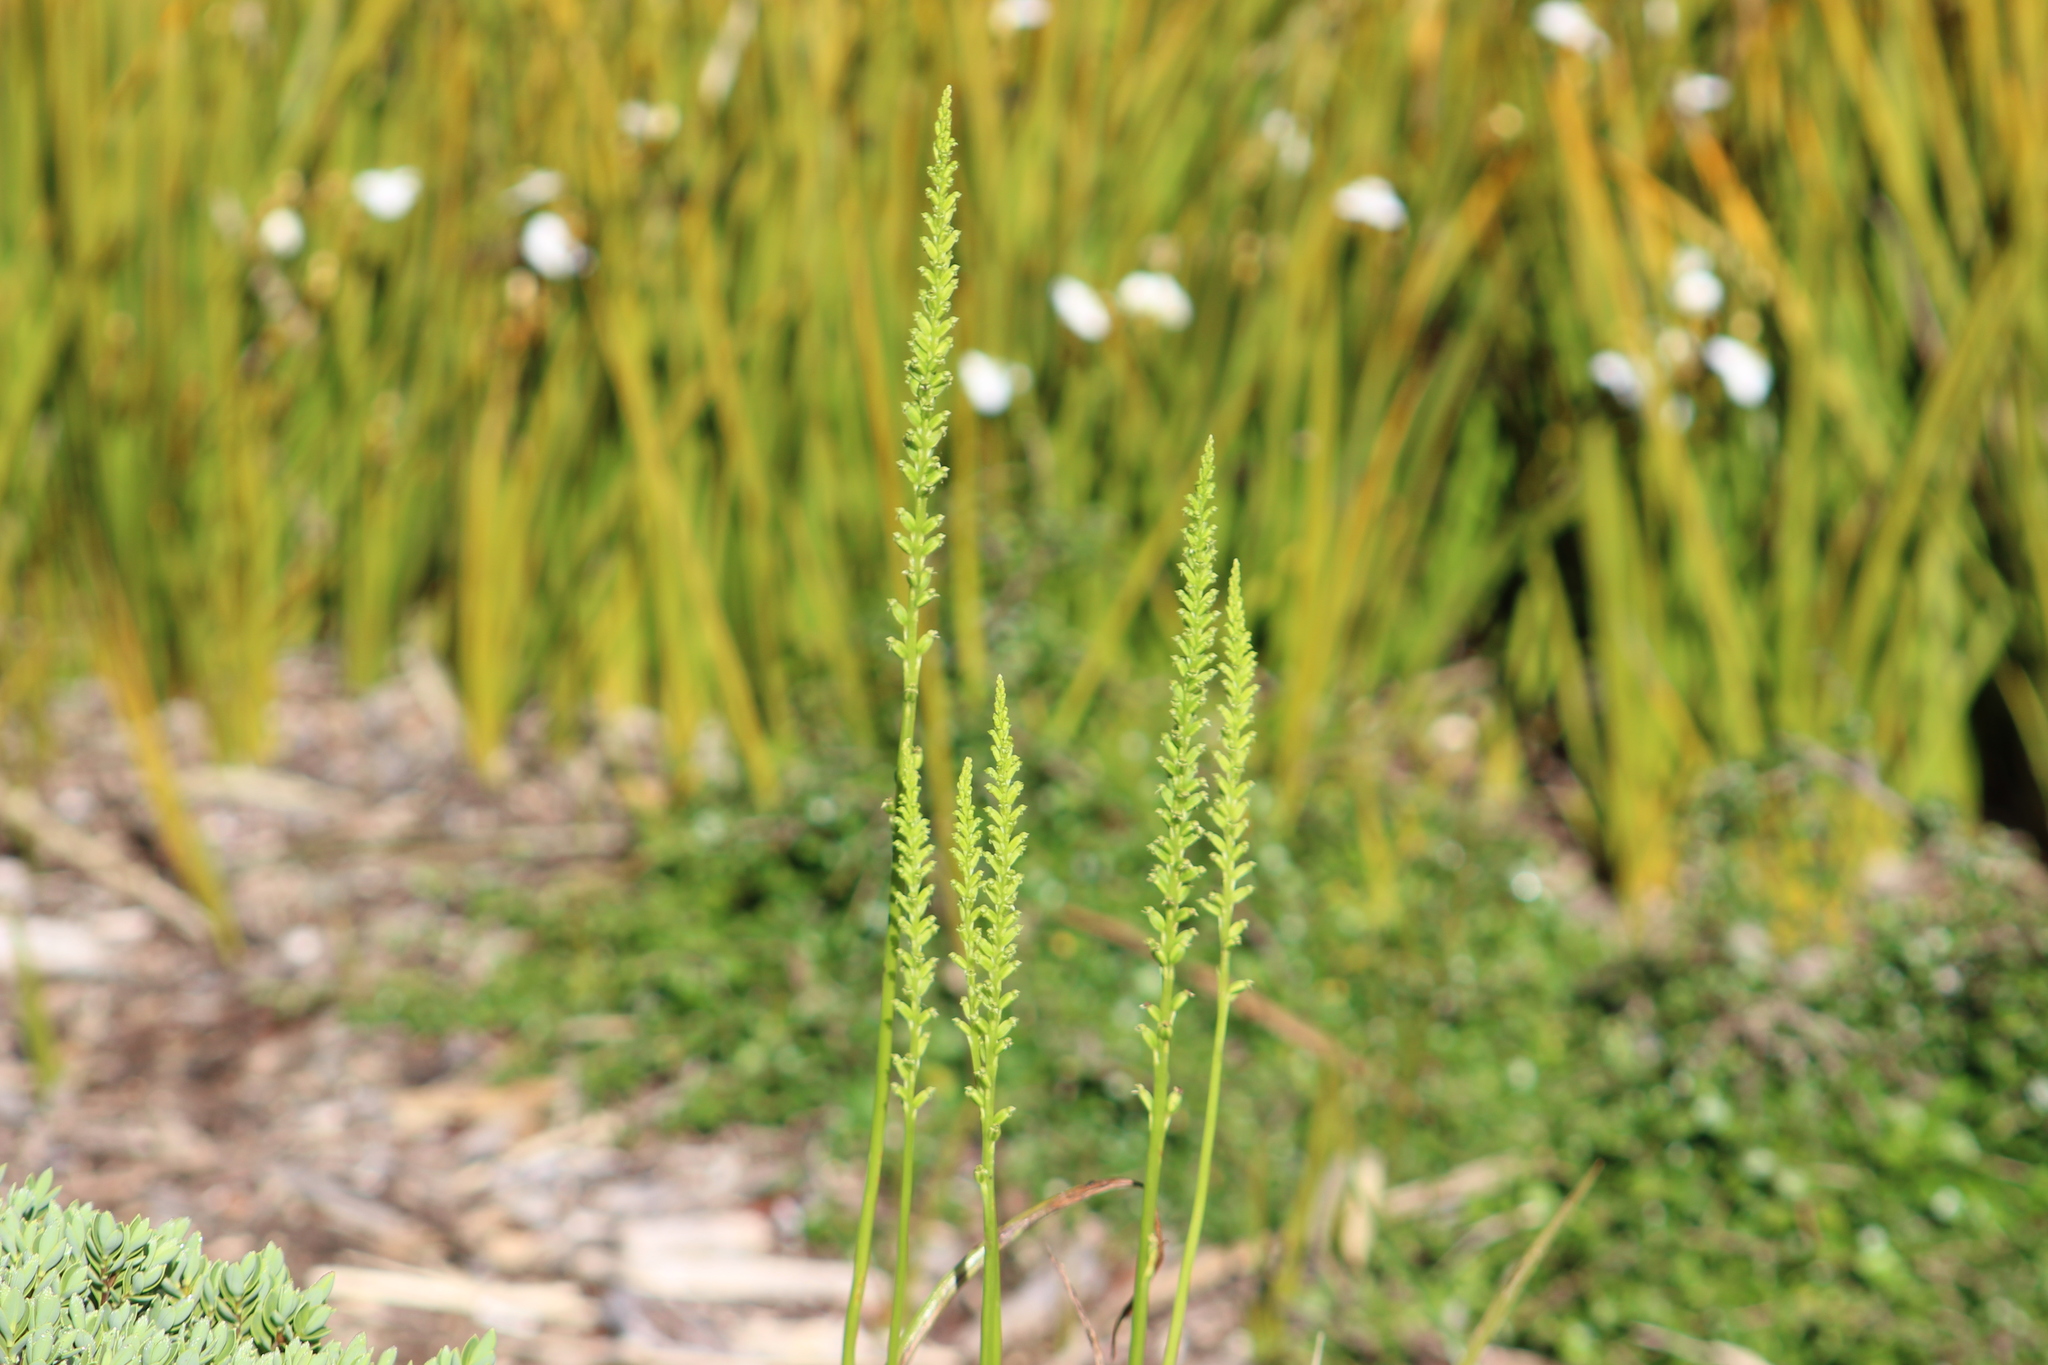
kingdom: Plantae
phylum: Tracheophyta
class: Liliopsida
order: Asparagales
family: Orchidaceae
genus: Microtis
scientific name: Microtis unifolia
